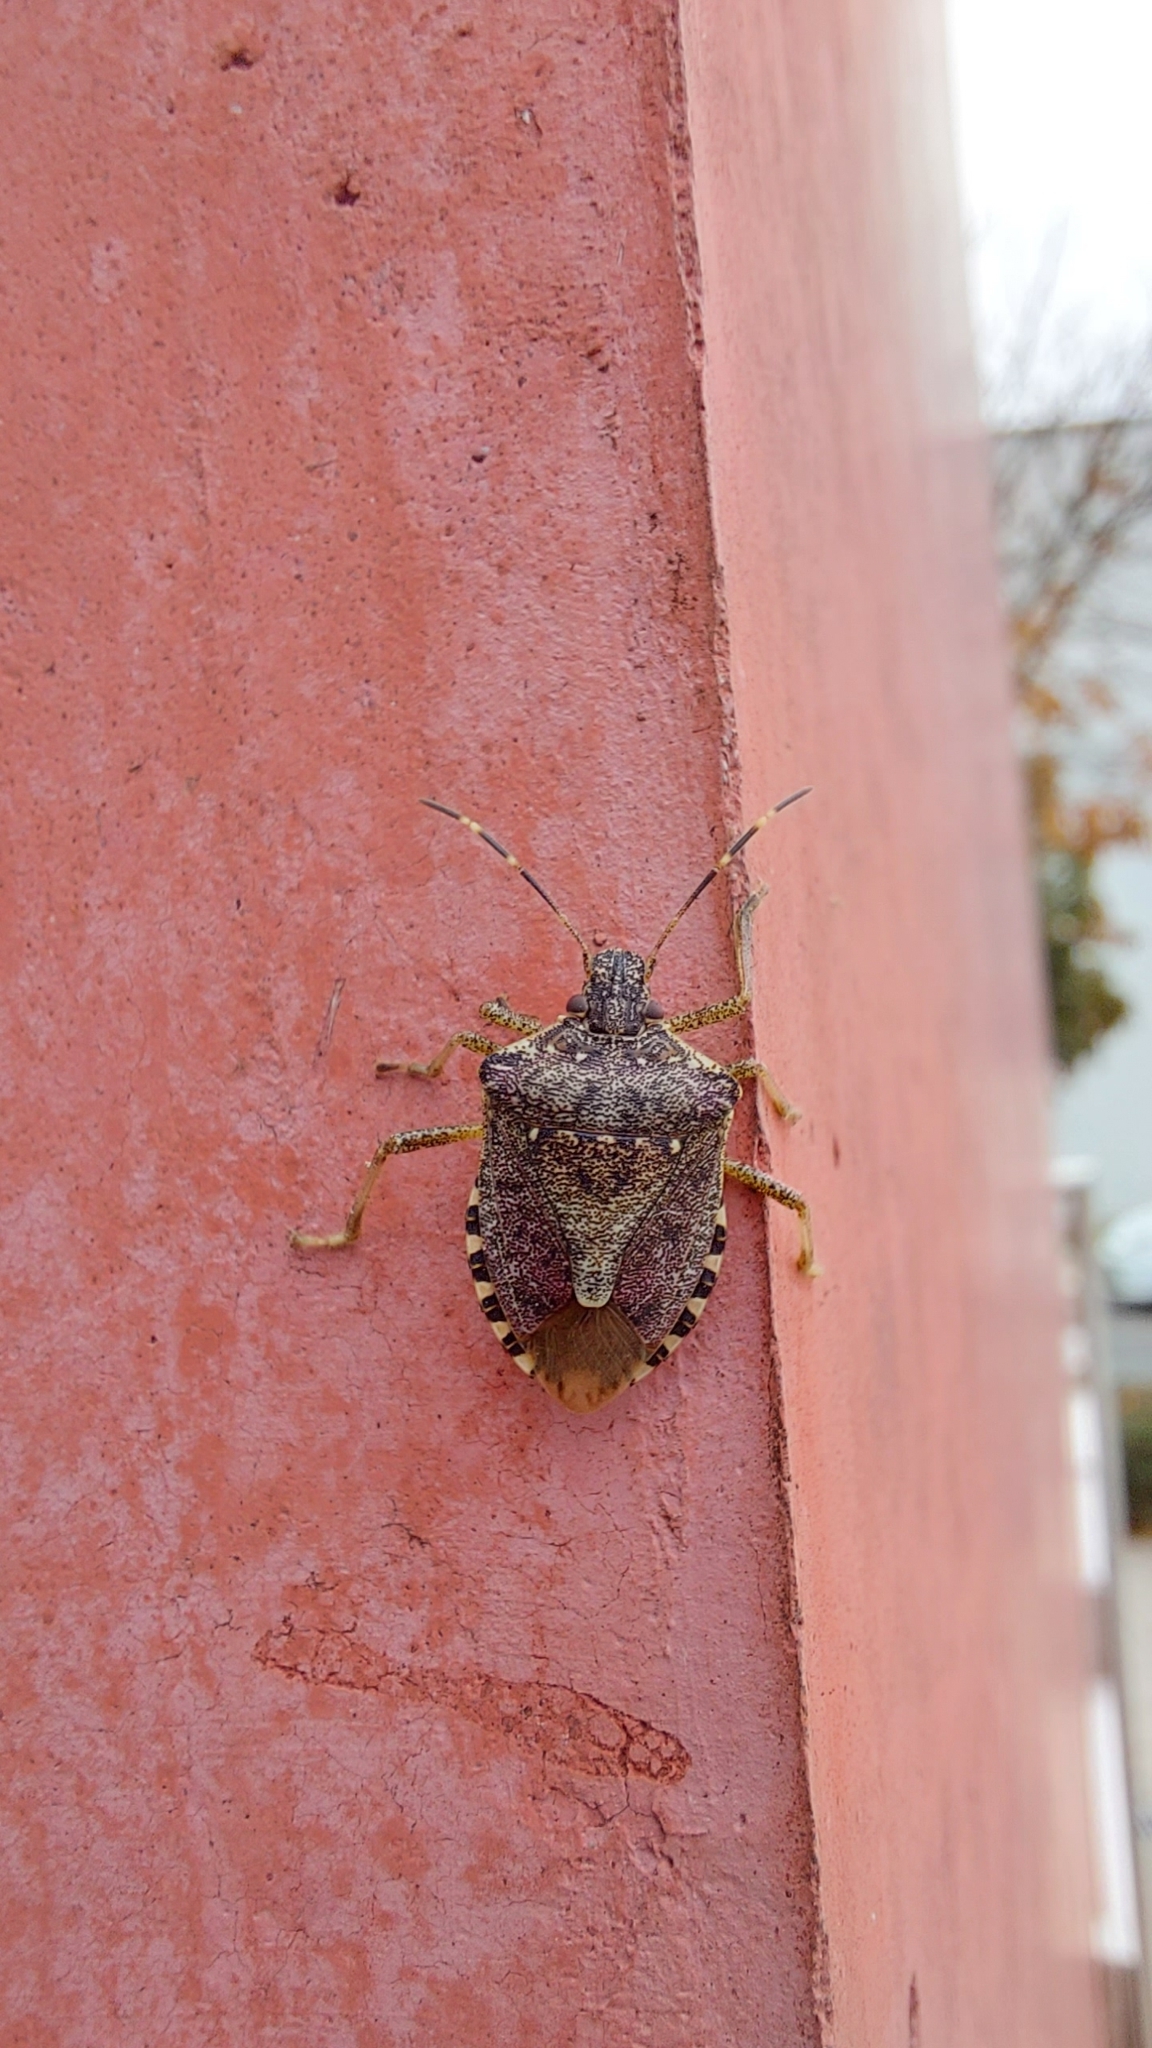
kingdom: Animalia
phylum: Arthropoda
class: Insecta
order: Hemiptera
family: Pentatomidae
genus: Halyomorpha
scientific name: Halyomorpha halys
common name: Brown marmorated stink bug
